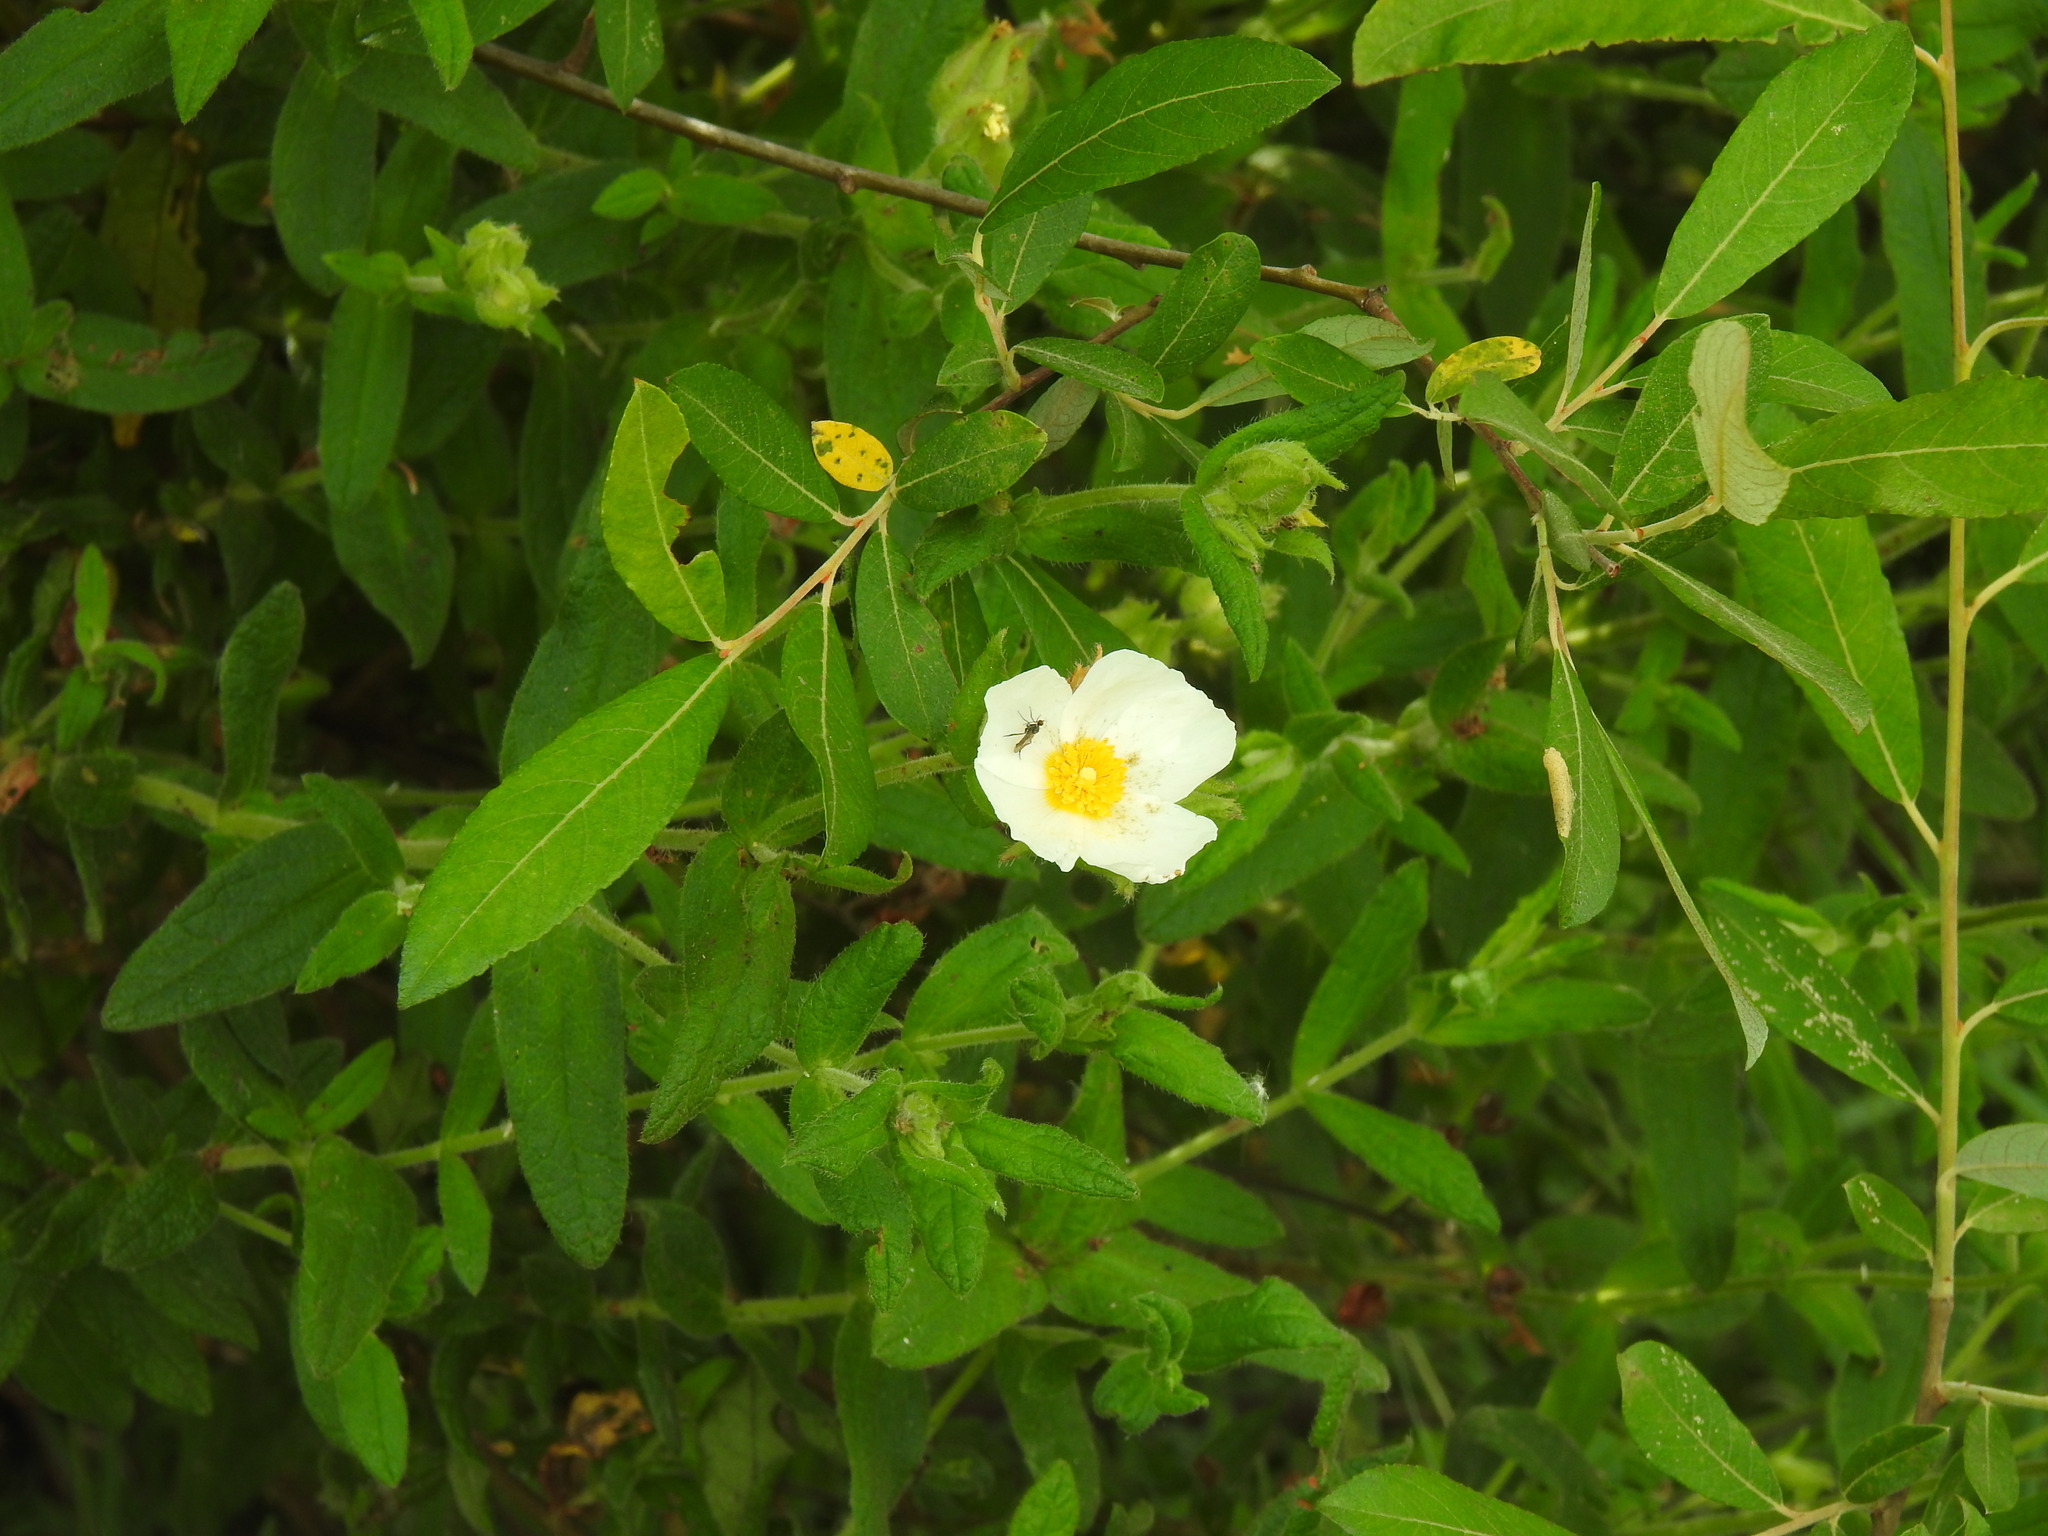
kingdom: Plantae
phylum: Tracheophyta
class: Magnoliopsida
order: Malvales
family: Cistaceae
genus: Cistus
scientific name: Cistus inflatus
